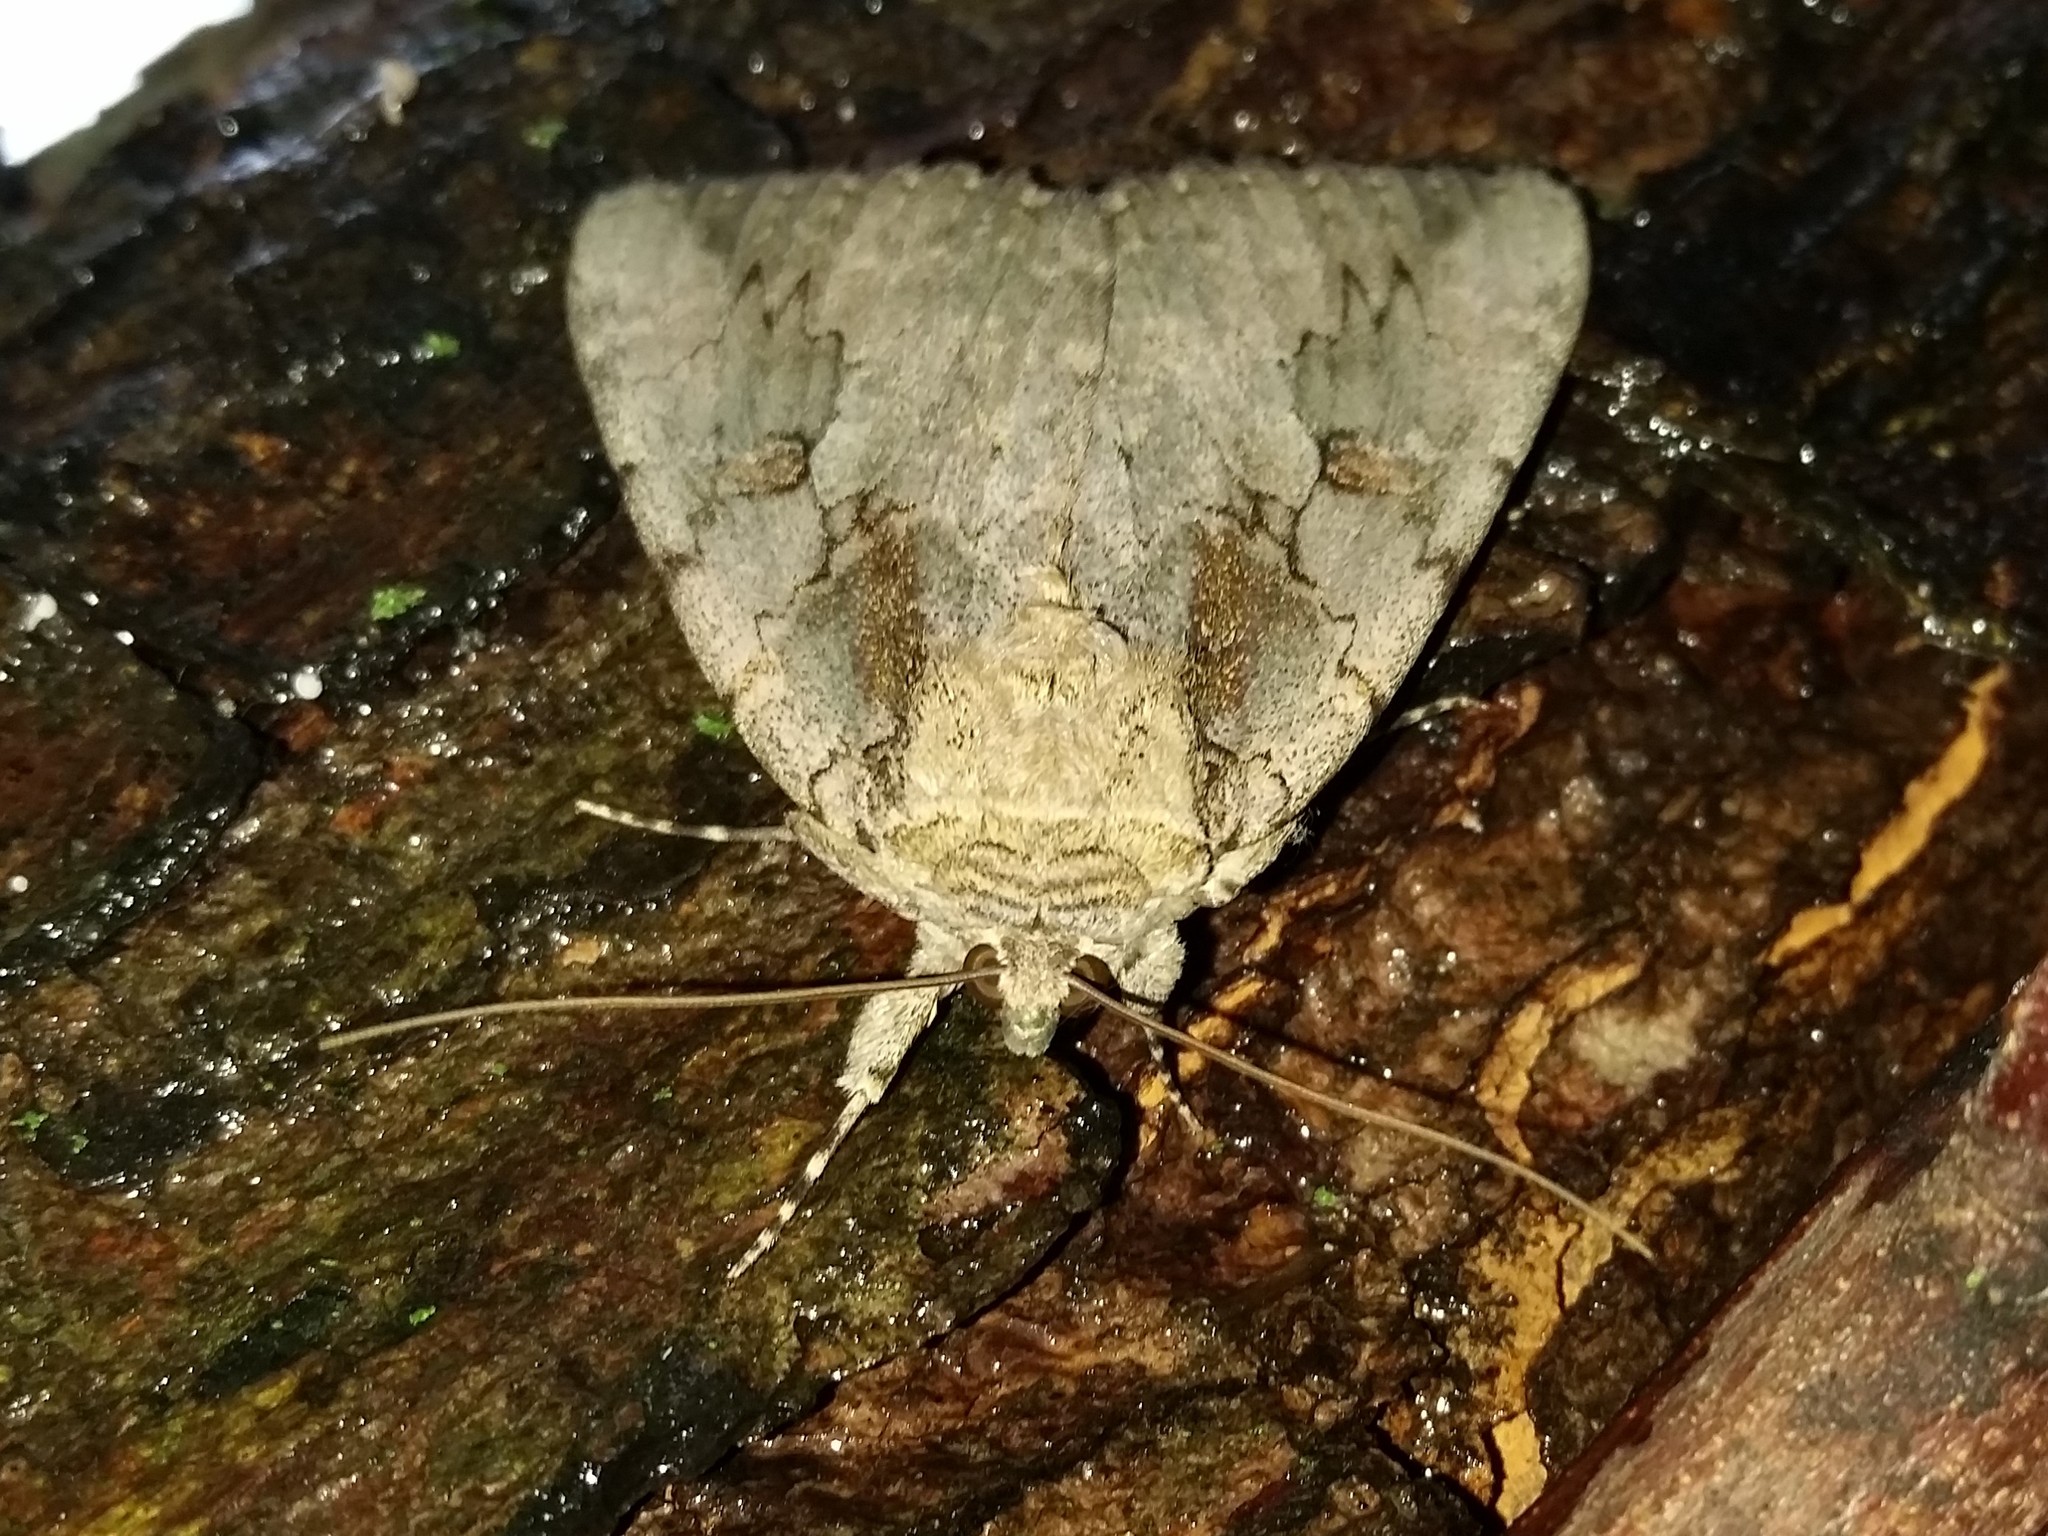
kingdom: Animalia
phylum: Arthropoda
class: Insecta
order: Lepidoptera
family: Erebidae
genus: Catocala
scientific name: Catocala amatrix
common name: Sweetheart underwing
